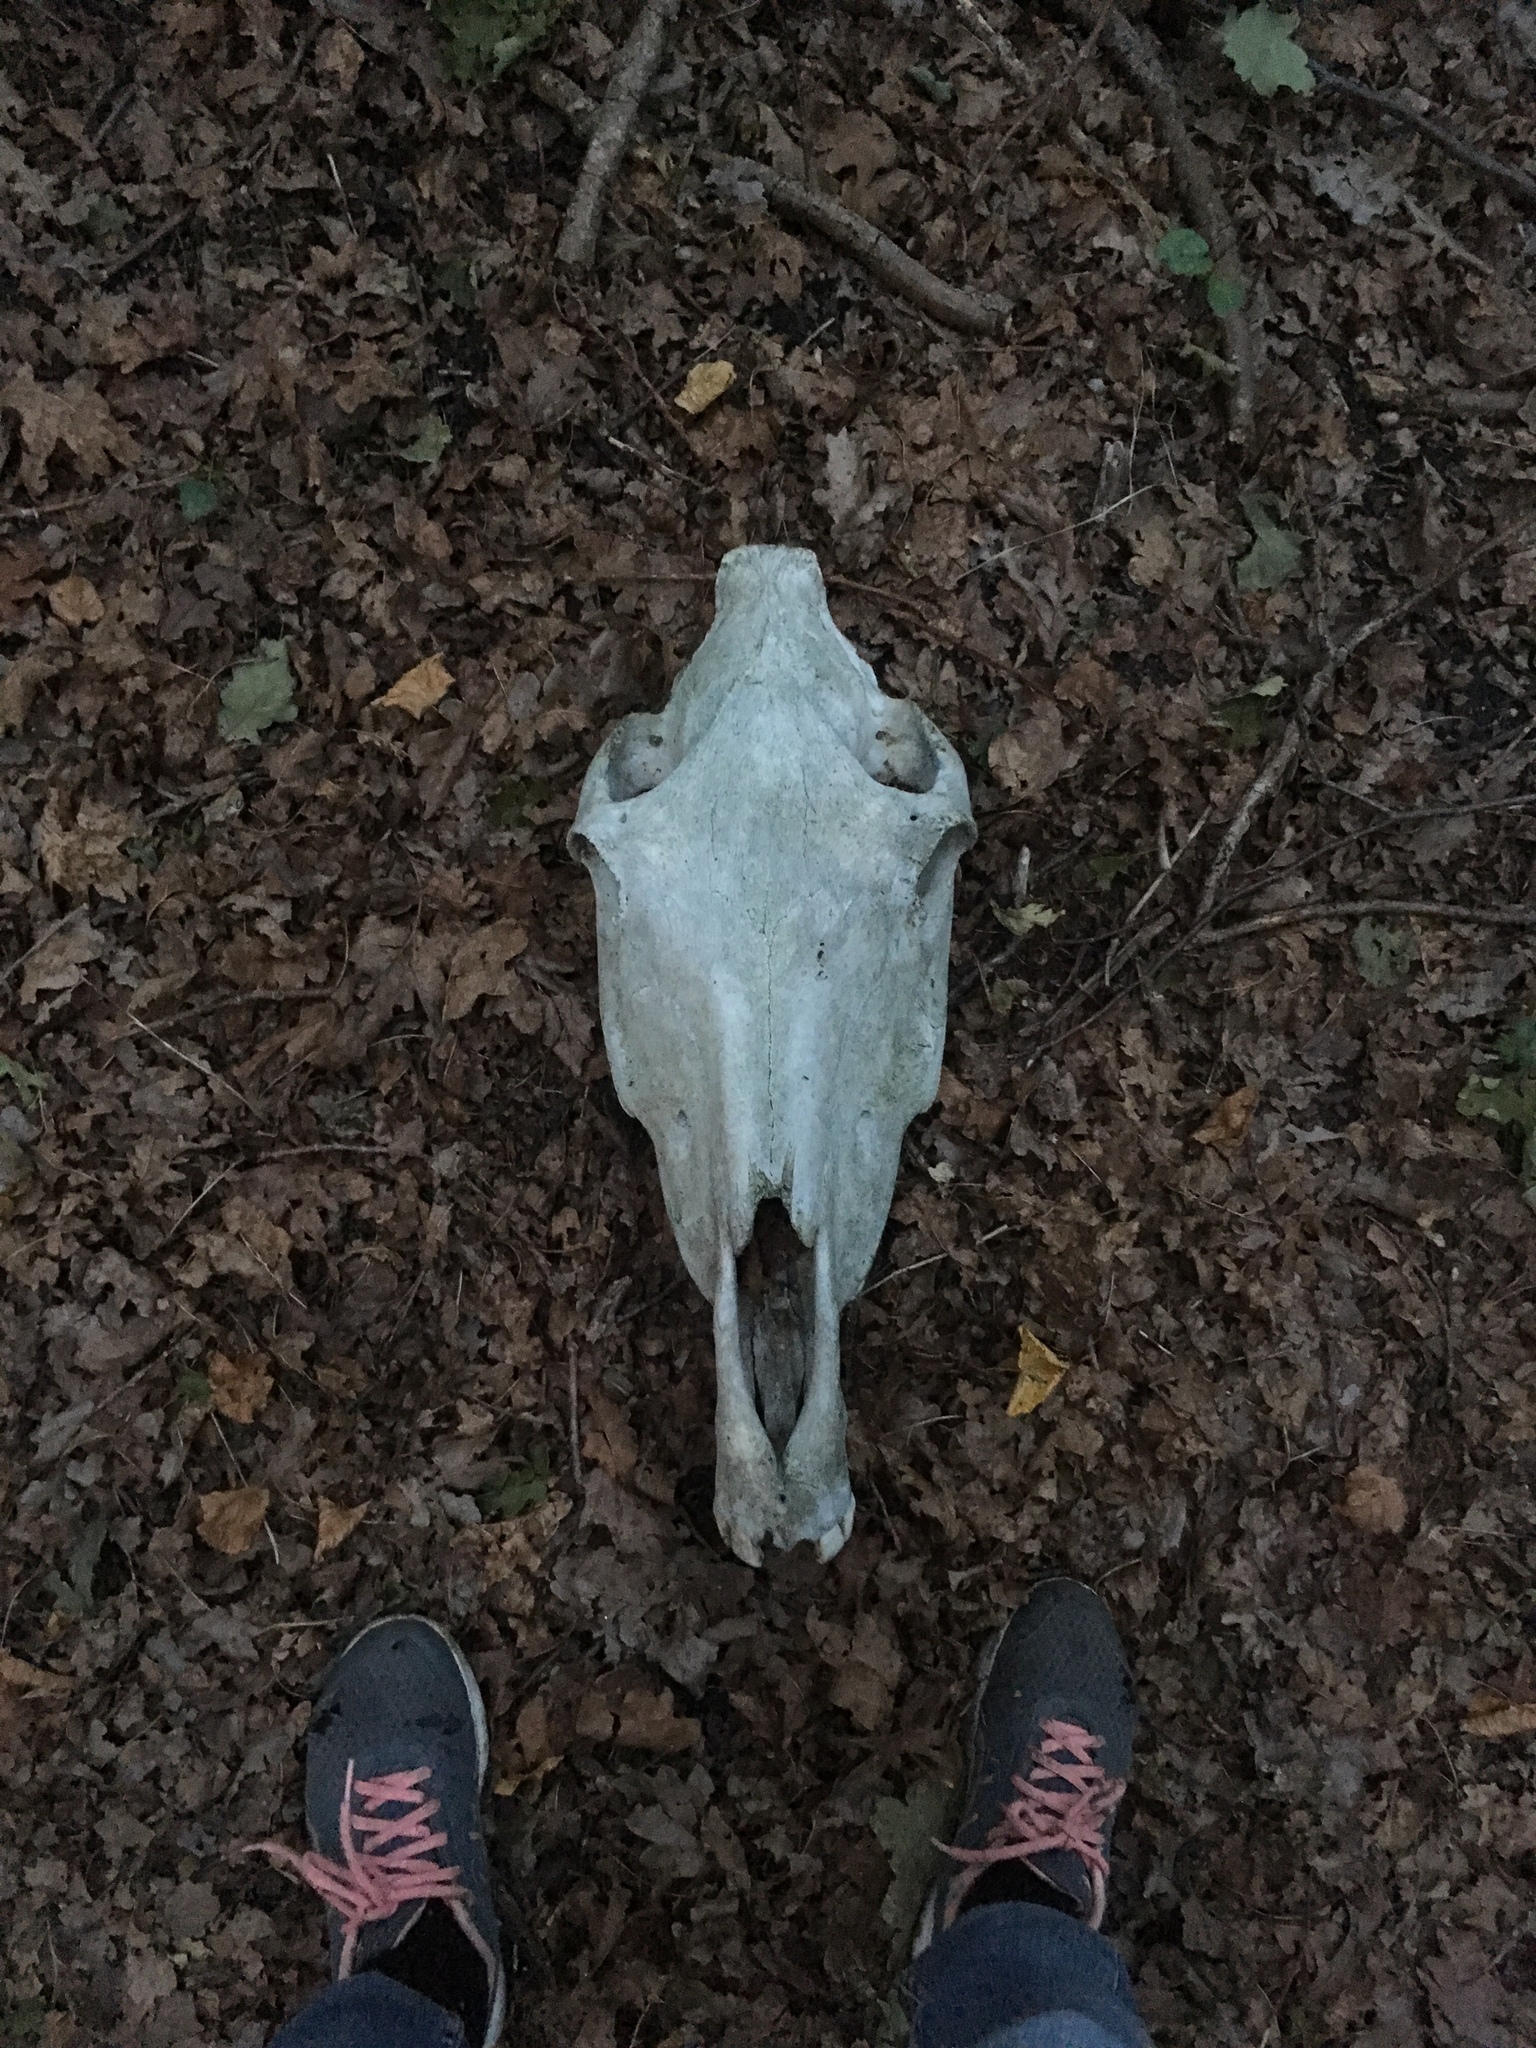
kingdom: Animalia
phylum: Chordata
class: Mammalia
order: Perissodactyla
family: Equidae
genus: Equus
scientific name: Equus caballus
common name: Horse
